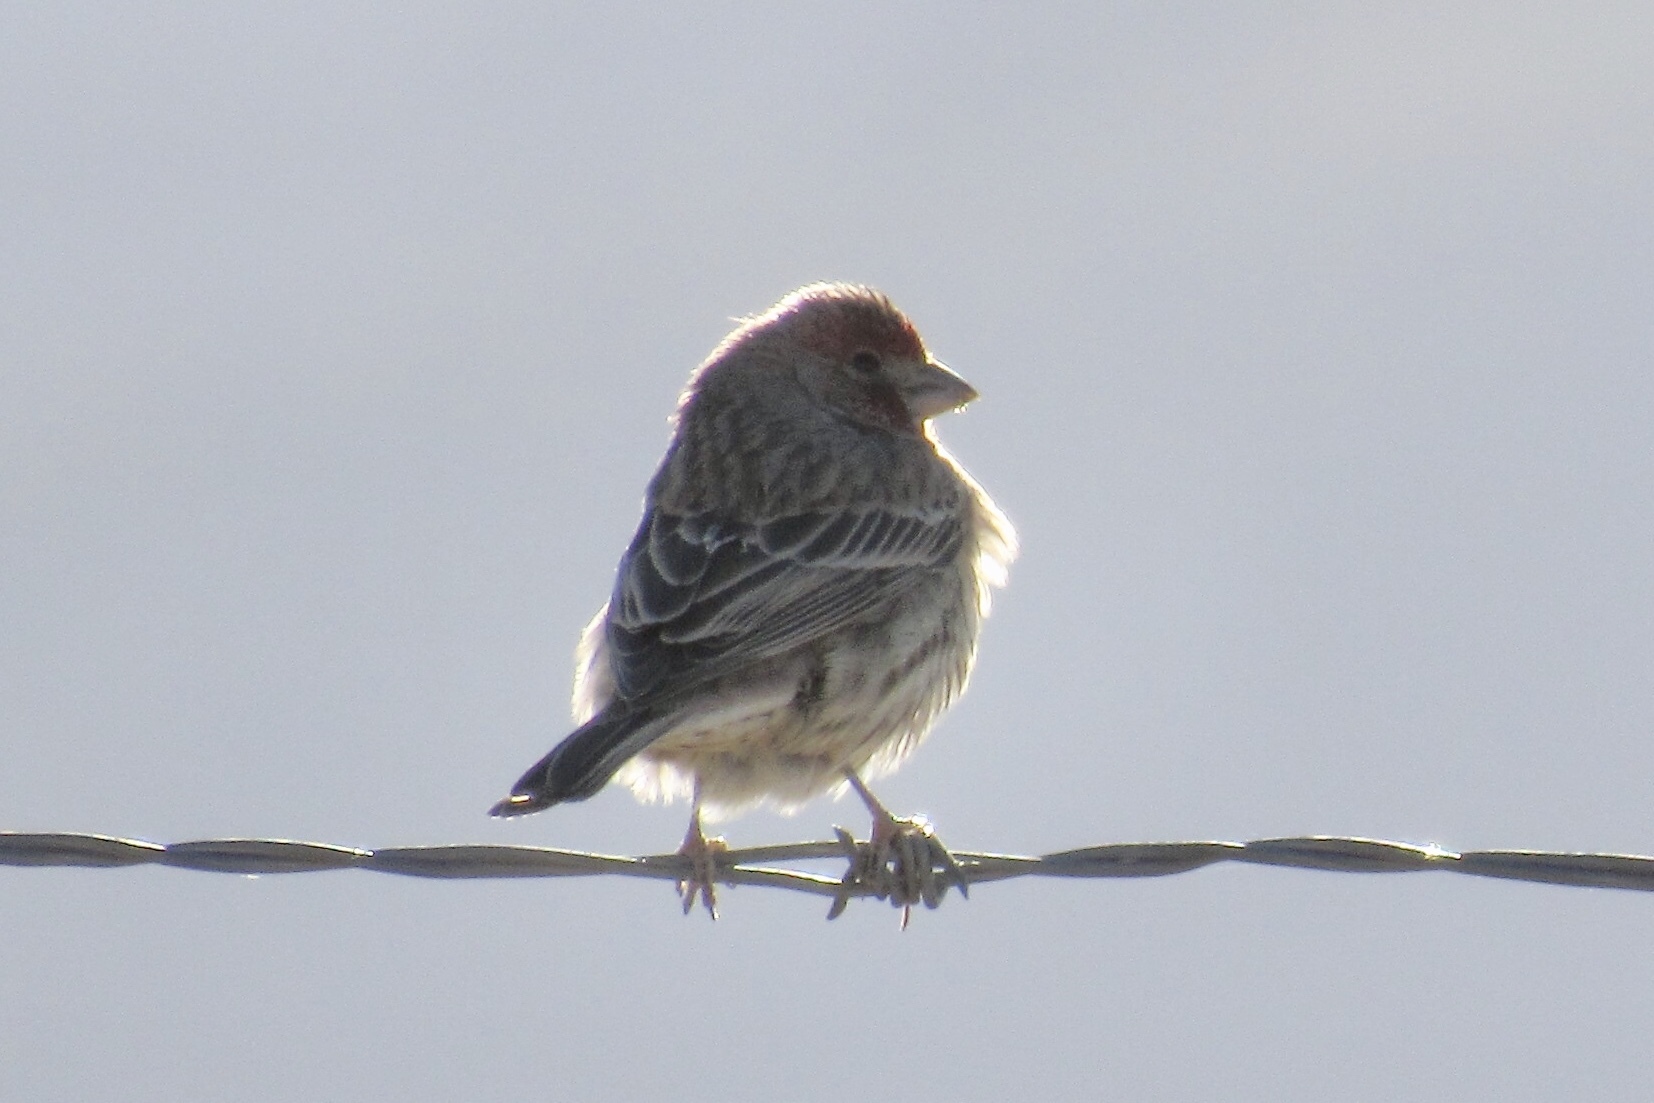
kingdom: Animalia
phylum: Chordata
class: Aves
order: Passeriformes
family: Fringillidae
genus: Haemorhous
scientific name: Haemorhous mexicanus
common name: House finch
